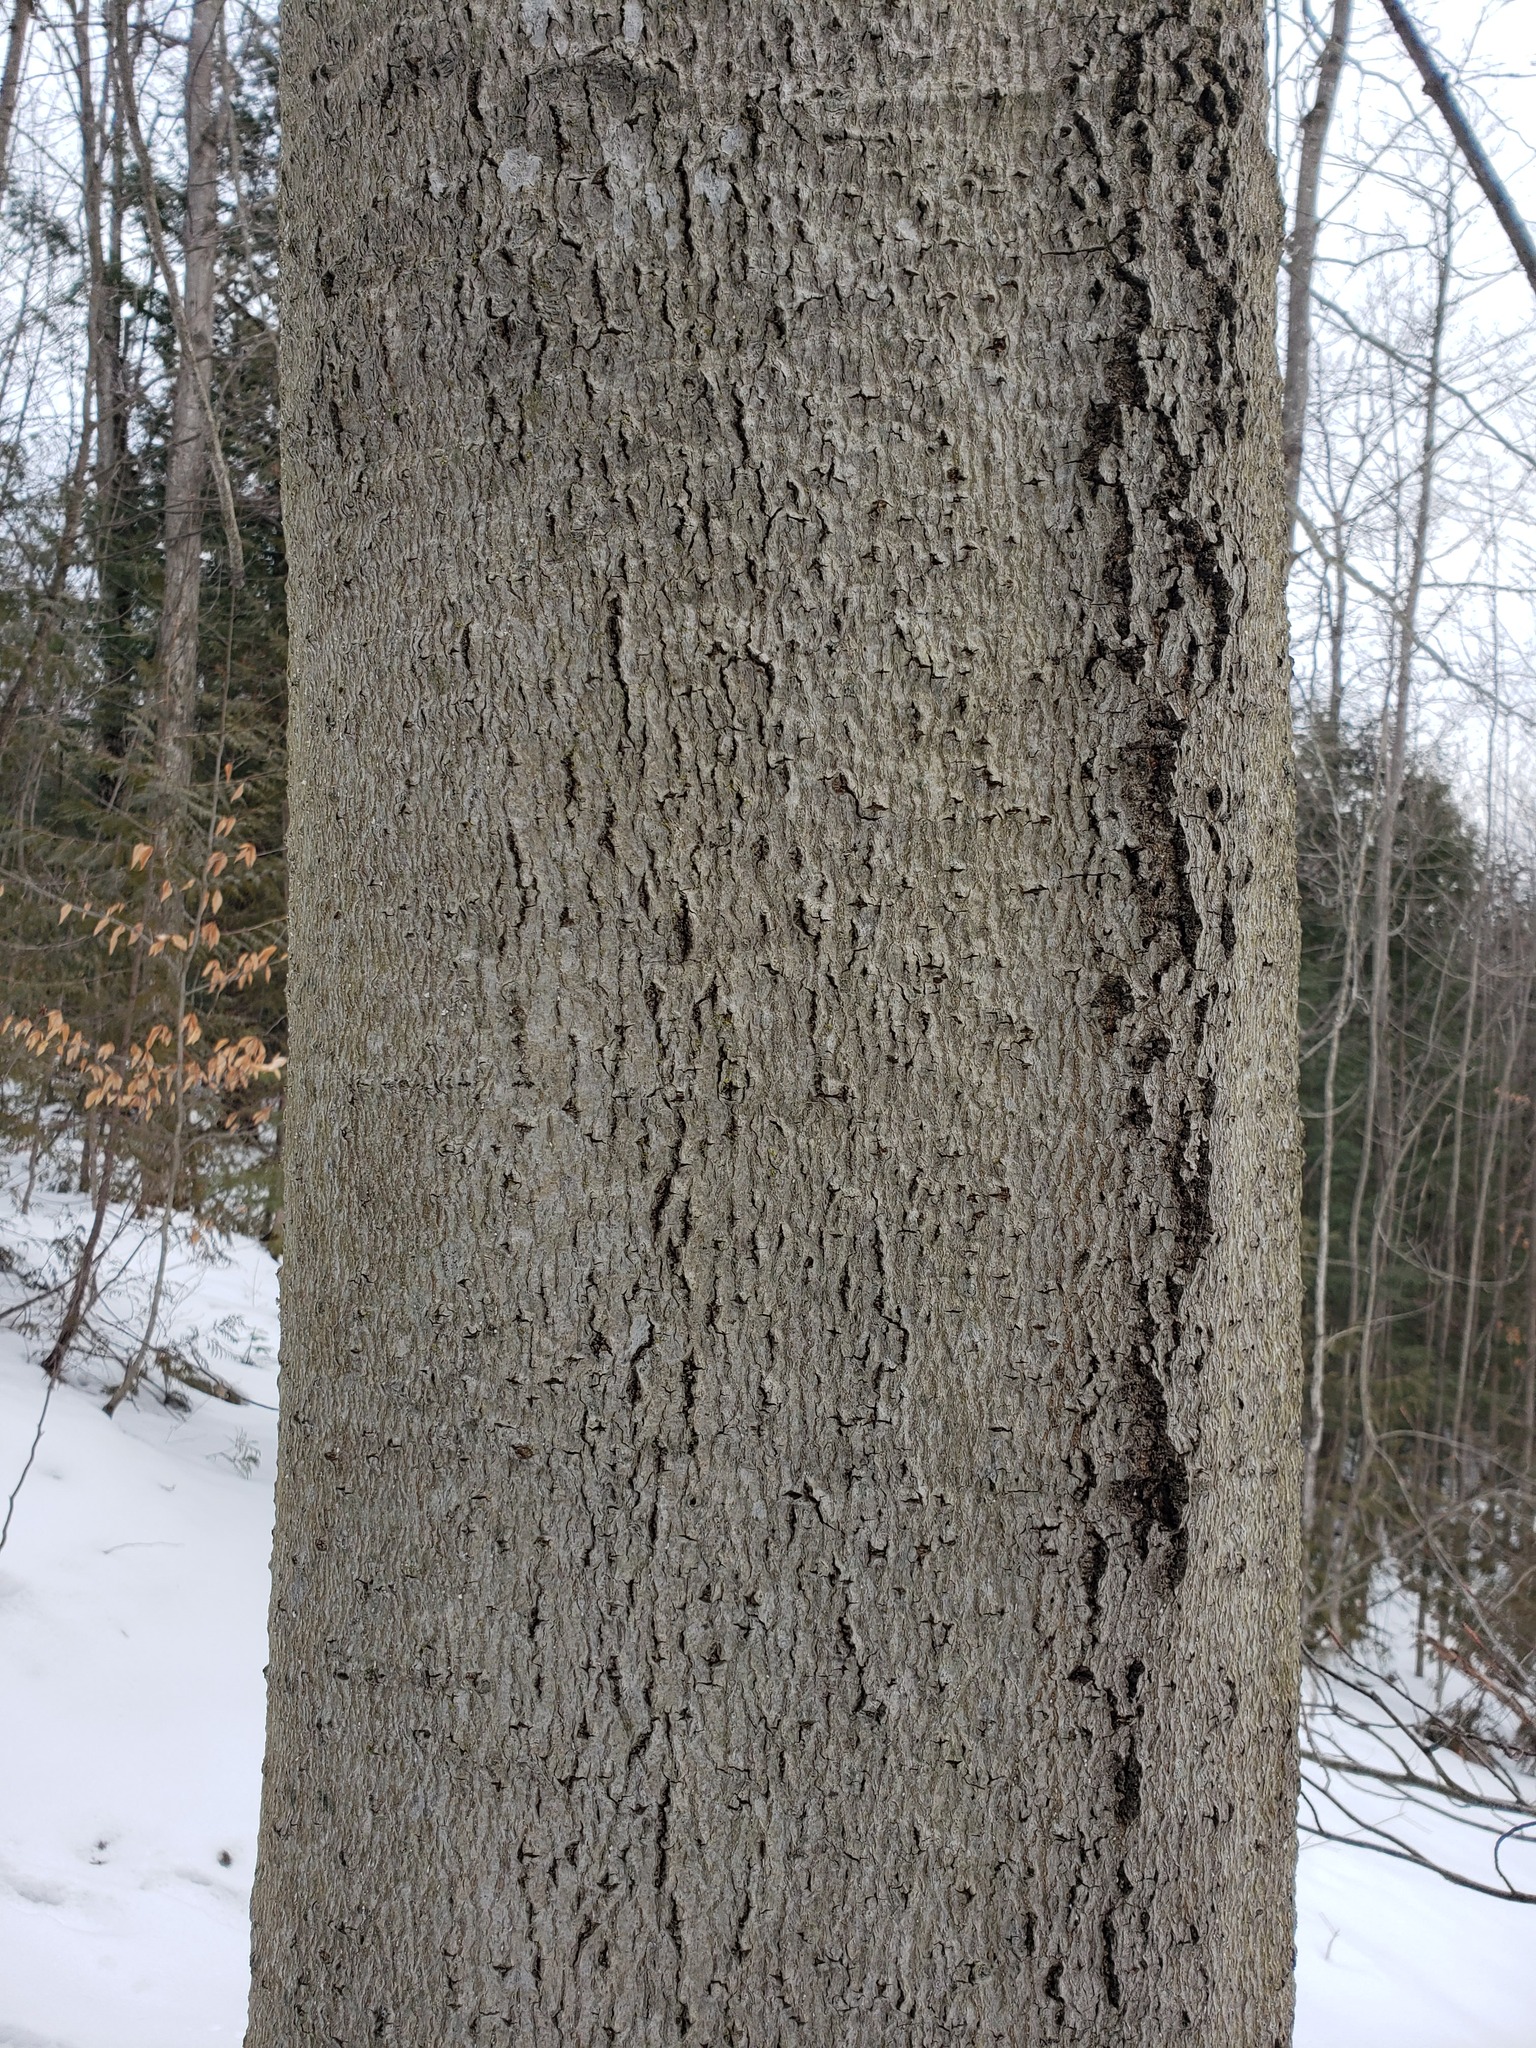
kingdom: Plantae
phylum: Tracheophyta
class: Magnoliopsida
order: Fagales
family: Fagaceae
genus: Fagus
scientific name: Fagus grandifolia
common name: American beech
